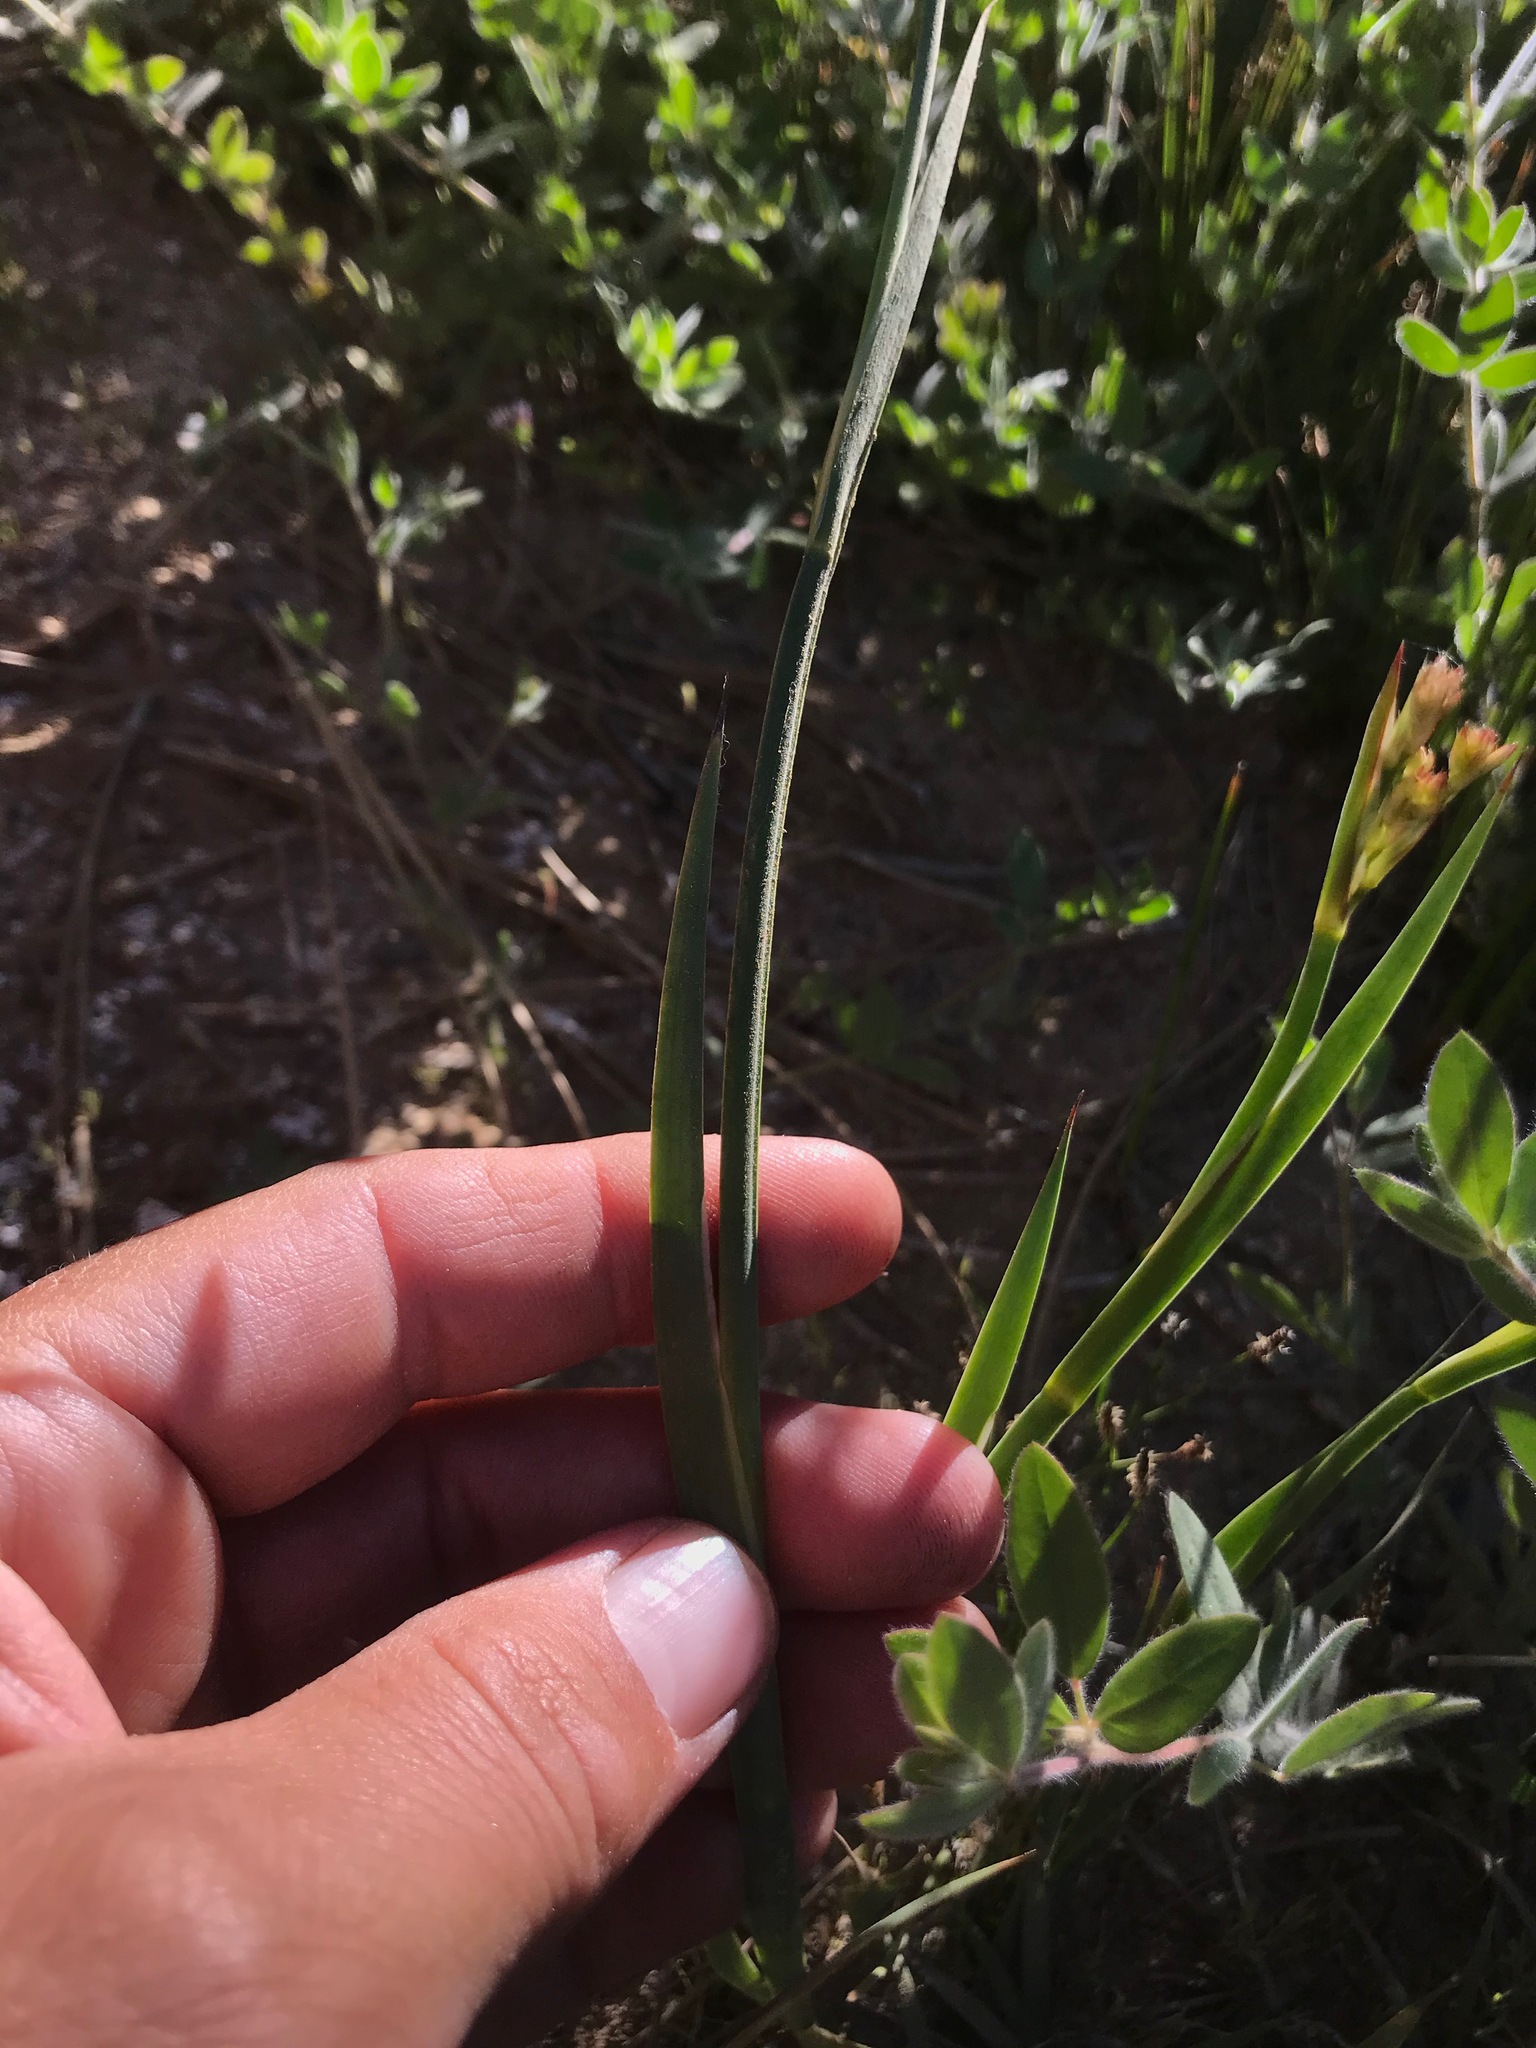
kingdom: Plantae
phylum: Tracheophyta
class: Liliopsida
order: Poales
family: Juncaceae
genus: Juncus
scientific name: Juncus xiphioides
